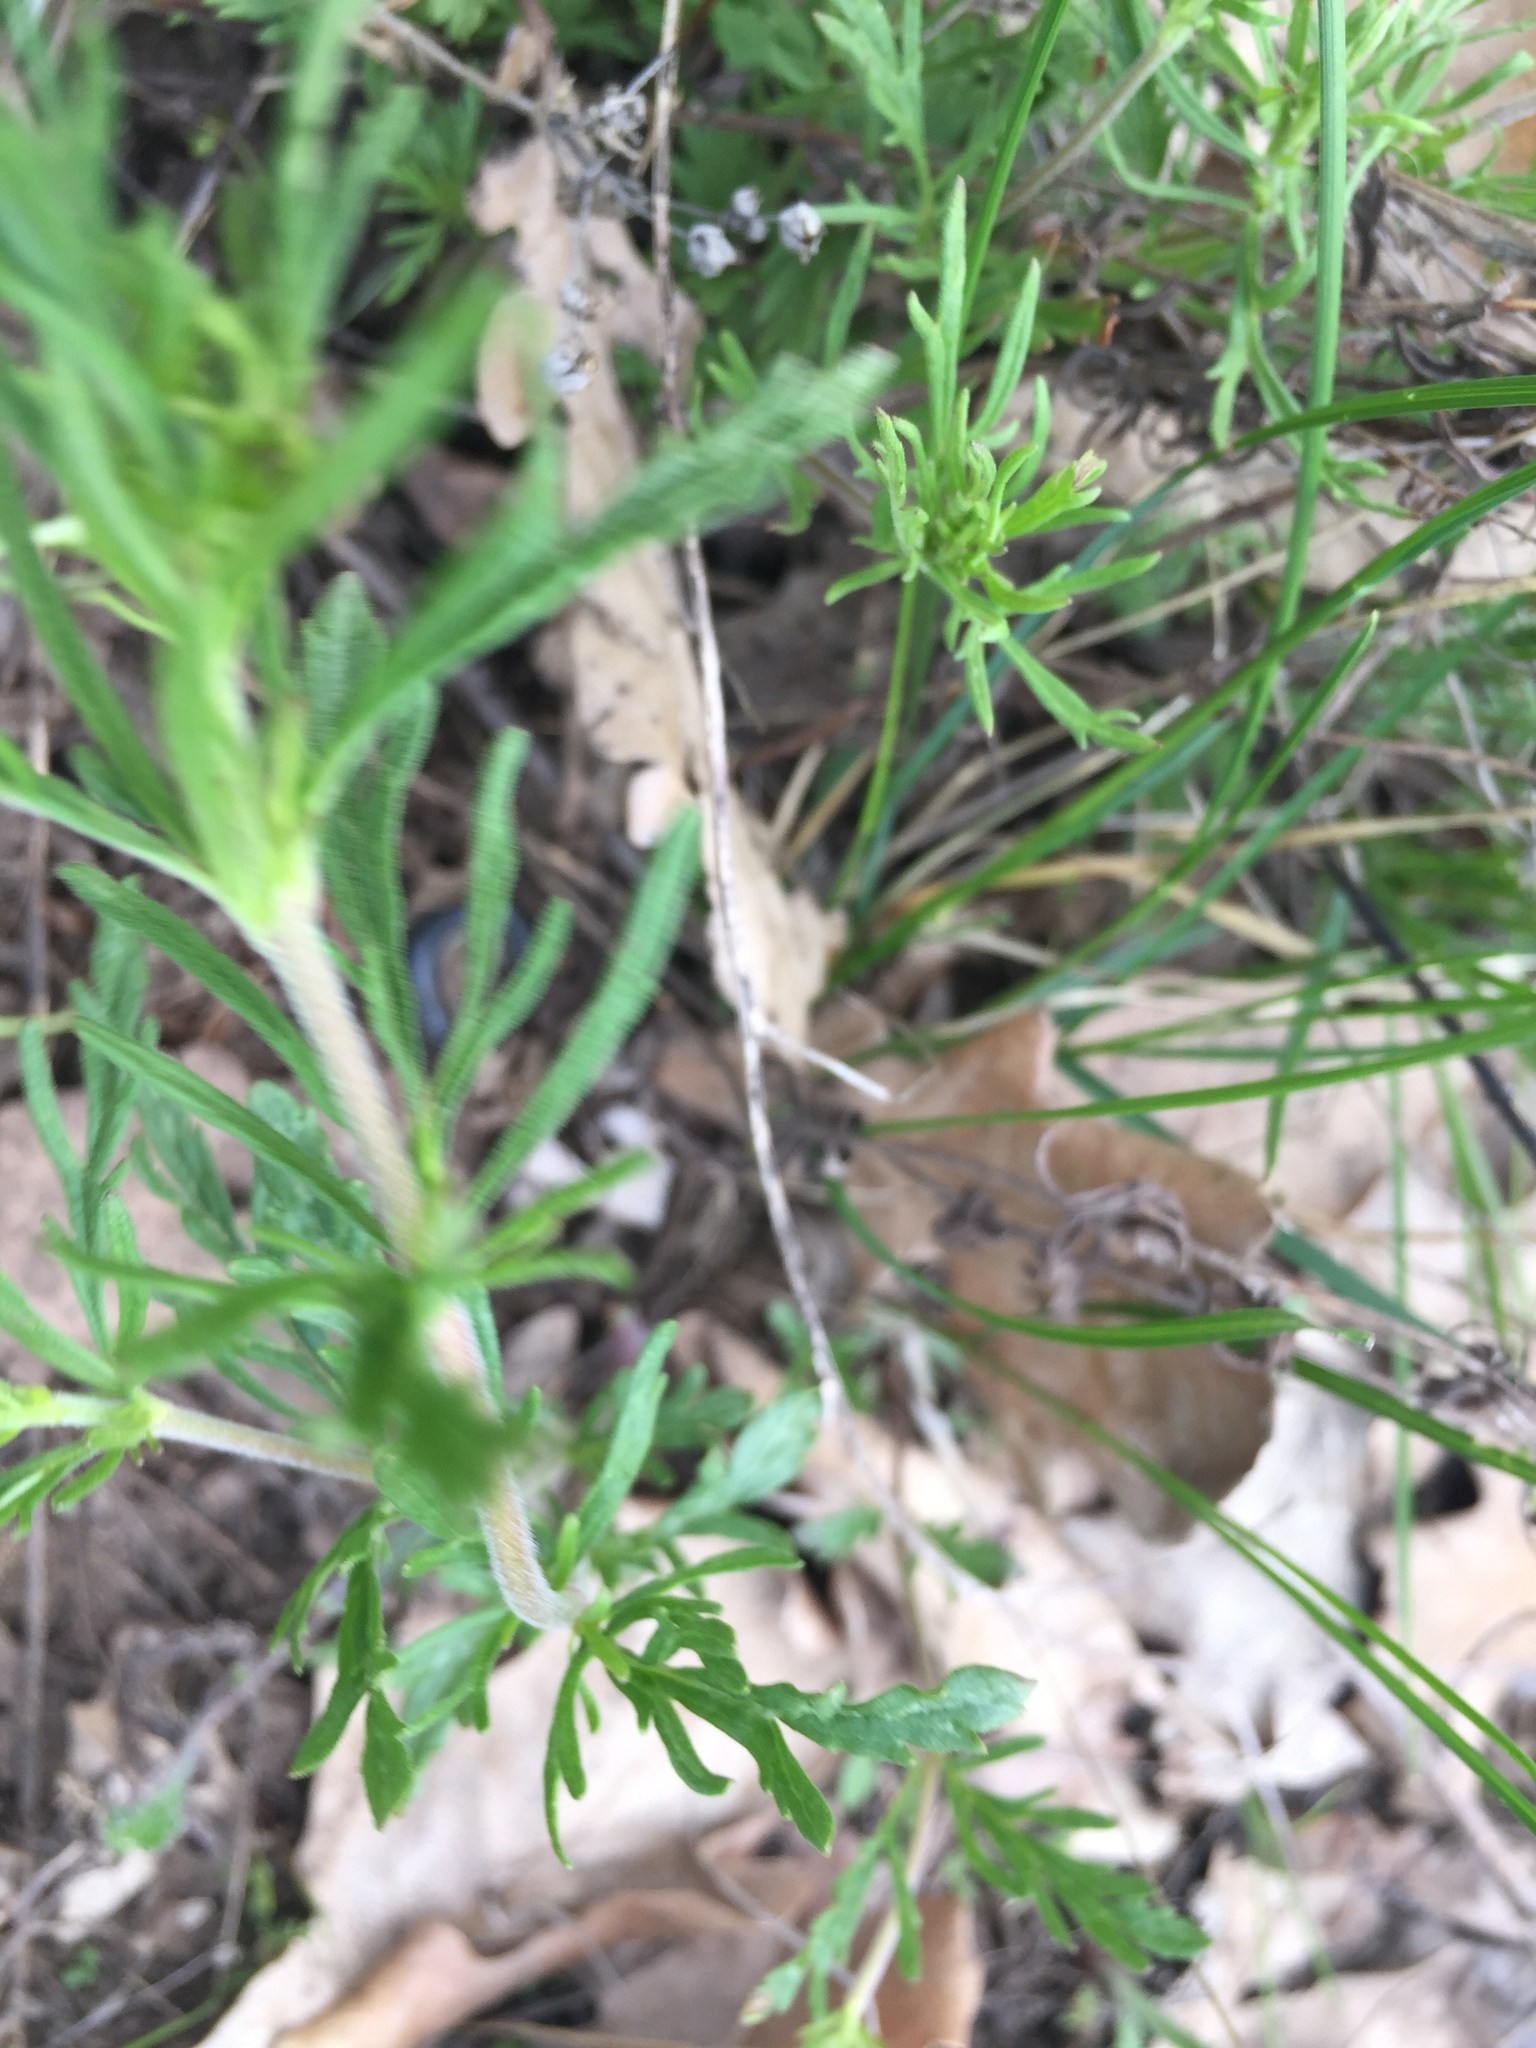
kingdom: Plantae
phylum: Tracheophyta
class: Magnoliopsida
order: Lamiales
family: Plantaginaceae
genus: Veronica
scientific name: Veronica austriaca
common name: Large speedwell
